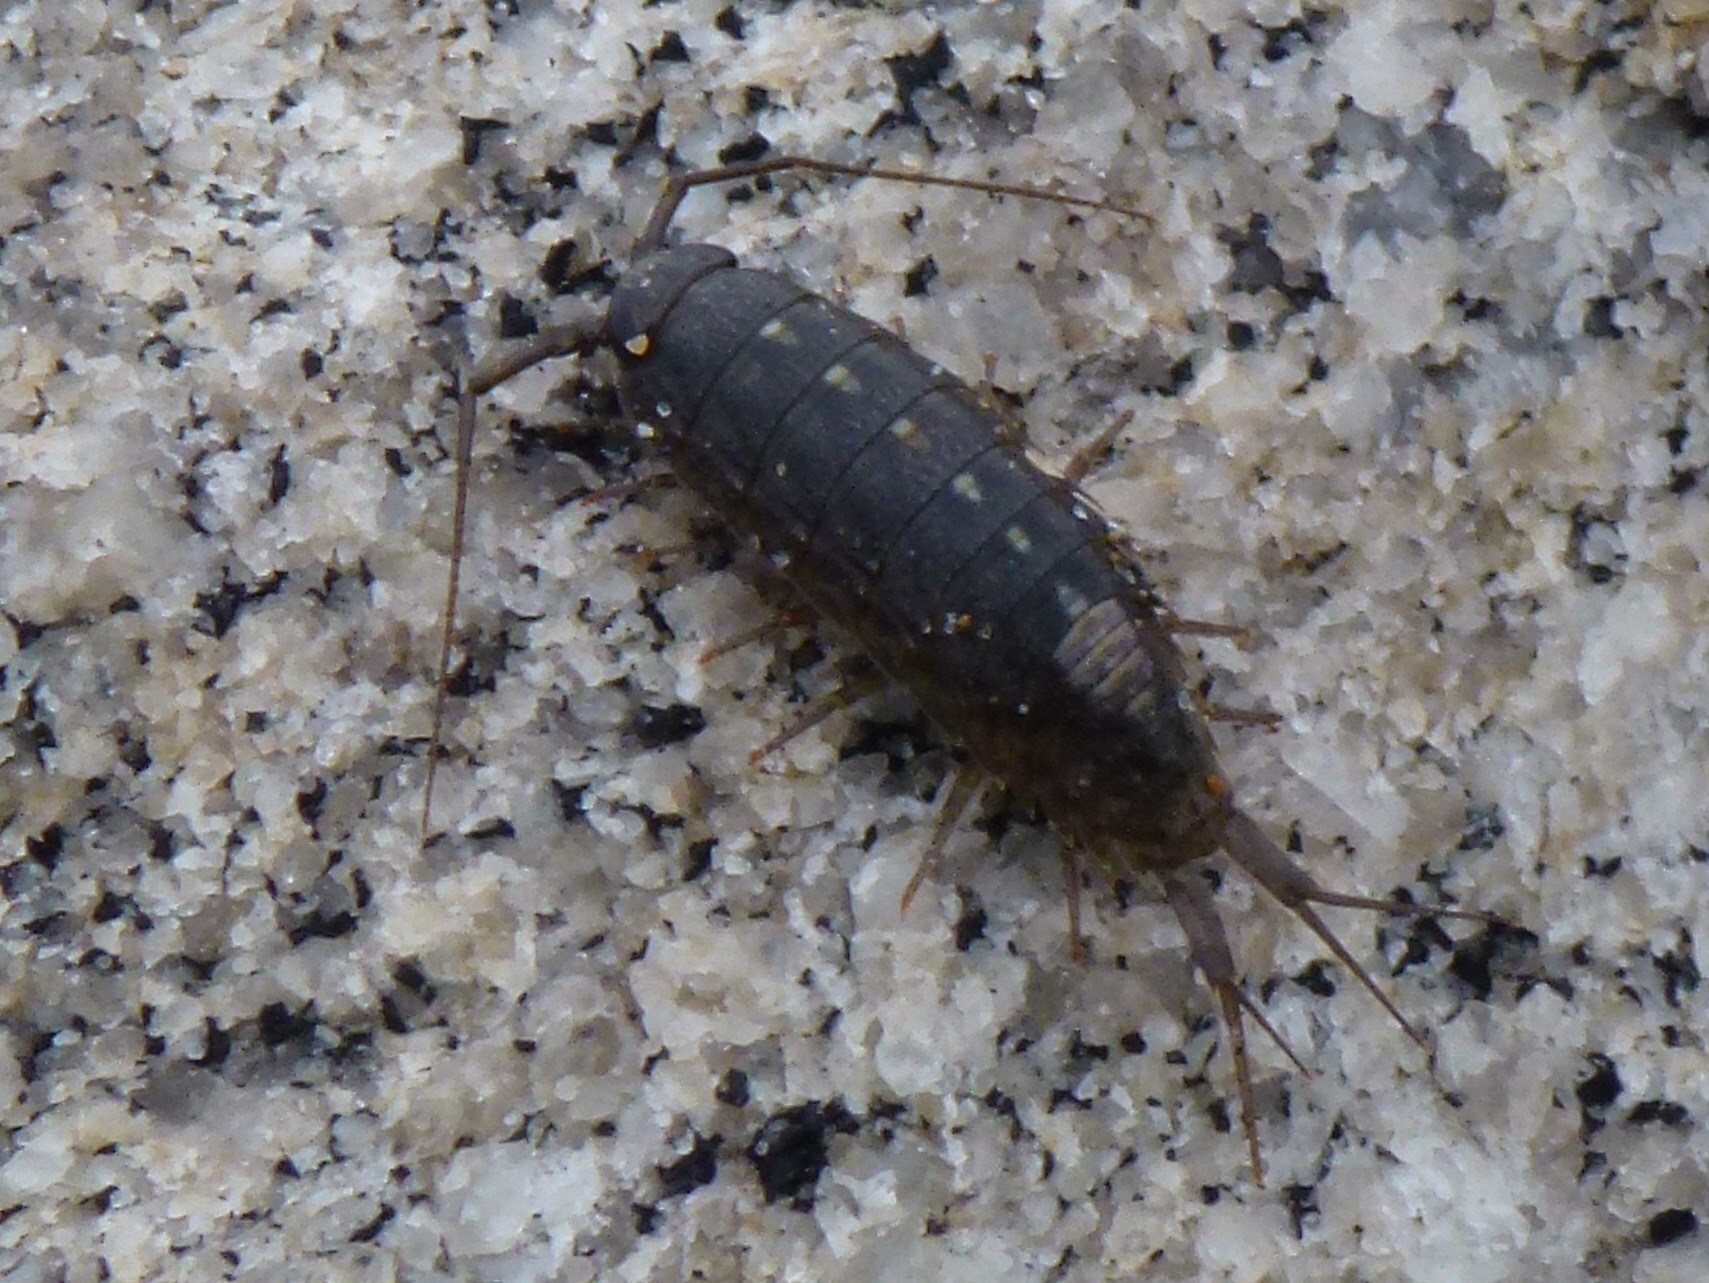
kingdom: Animalia
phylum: Arthropoda
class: Malacostraca
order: Isopoda
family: Ligiidae
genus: Ligia
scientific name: Ligia occidentalis
